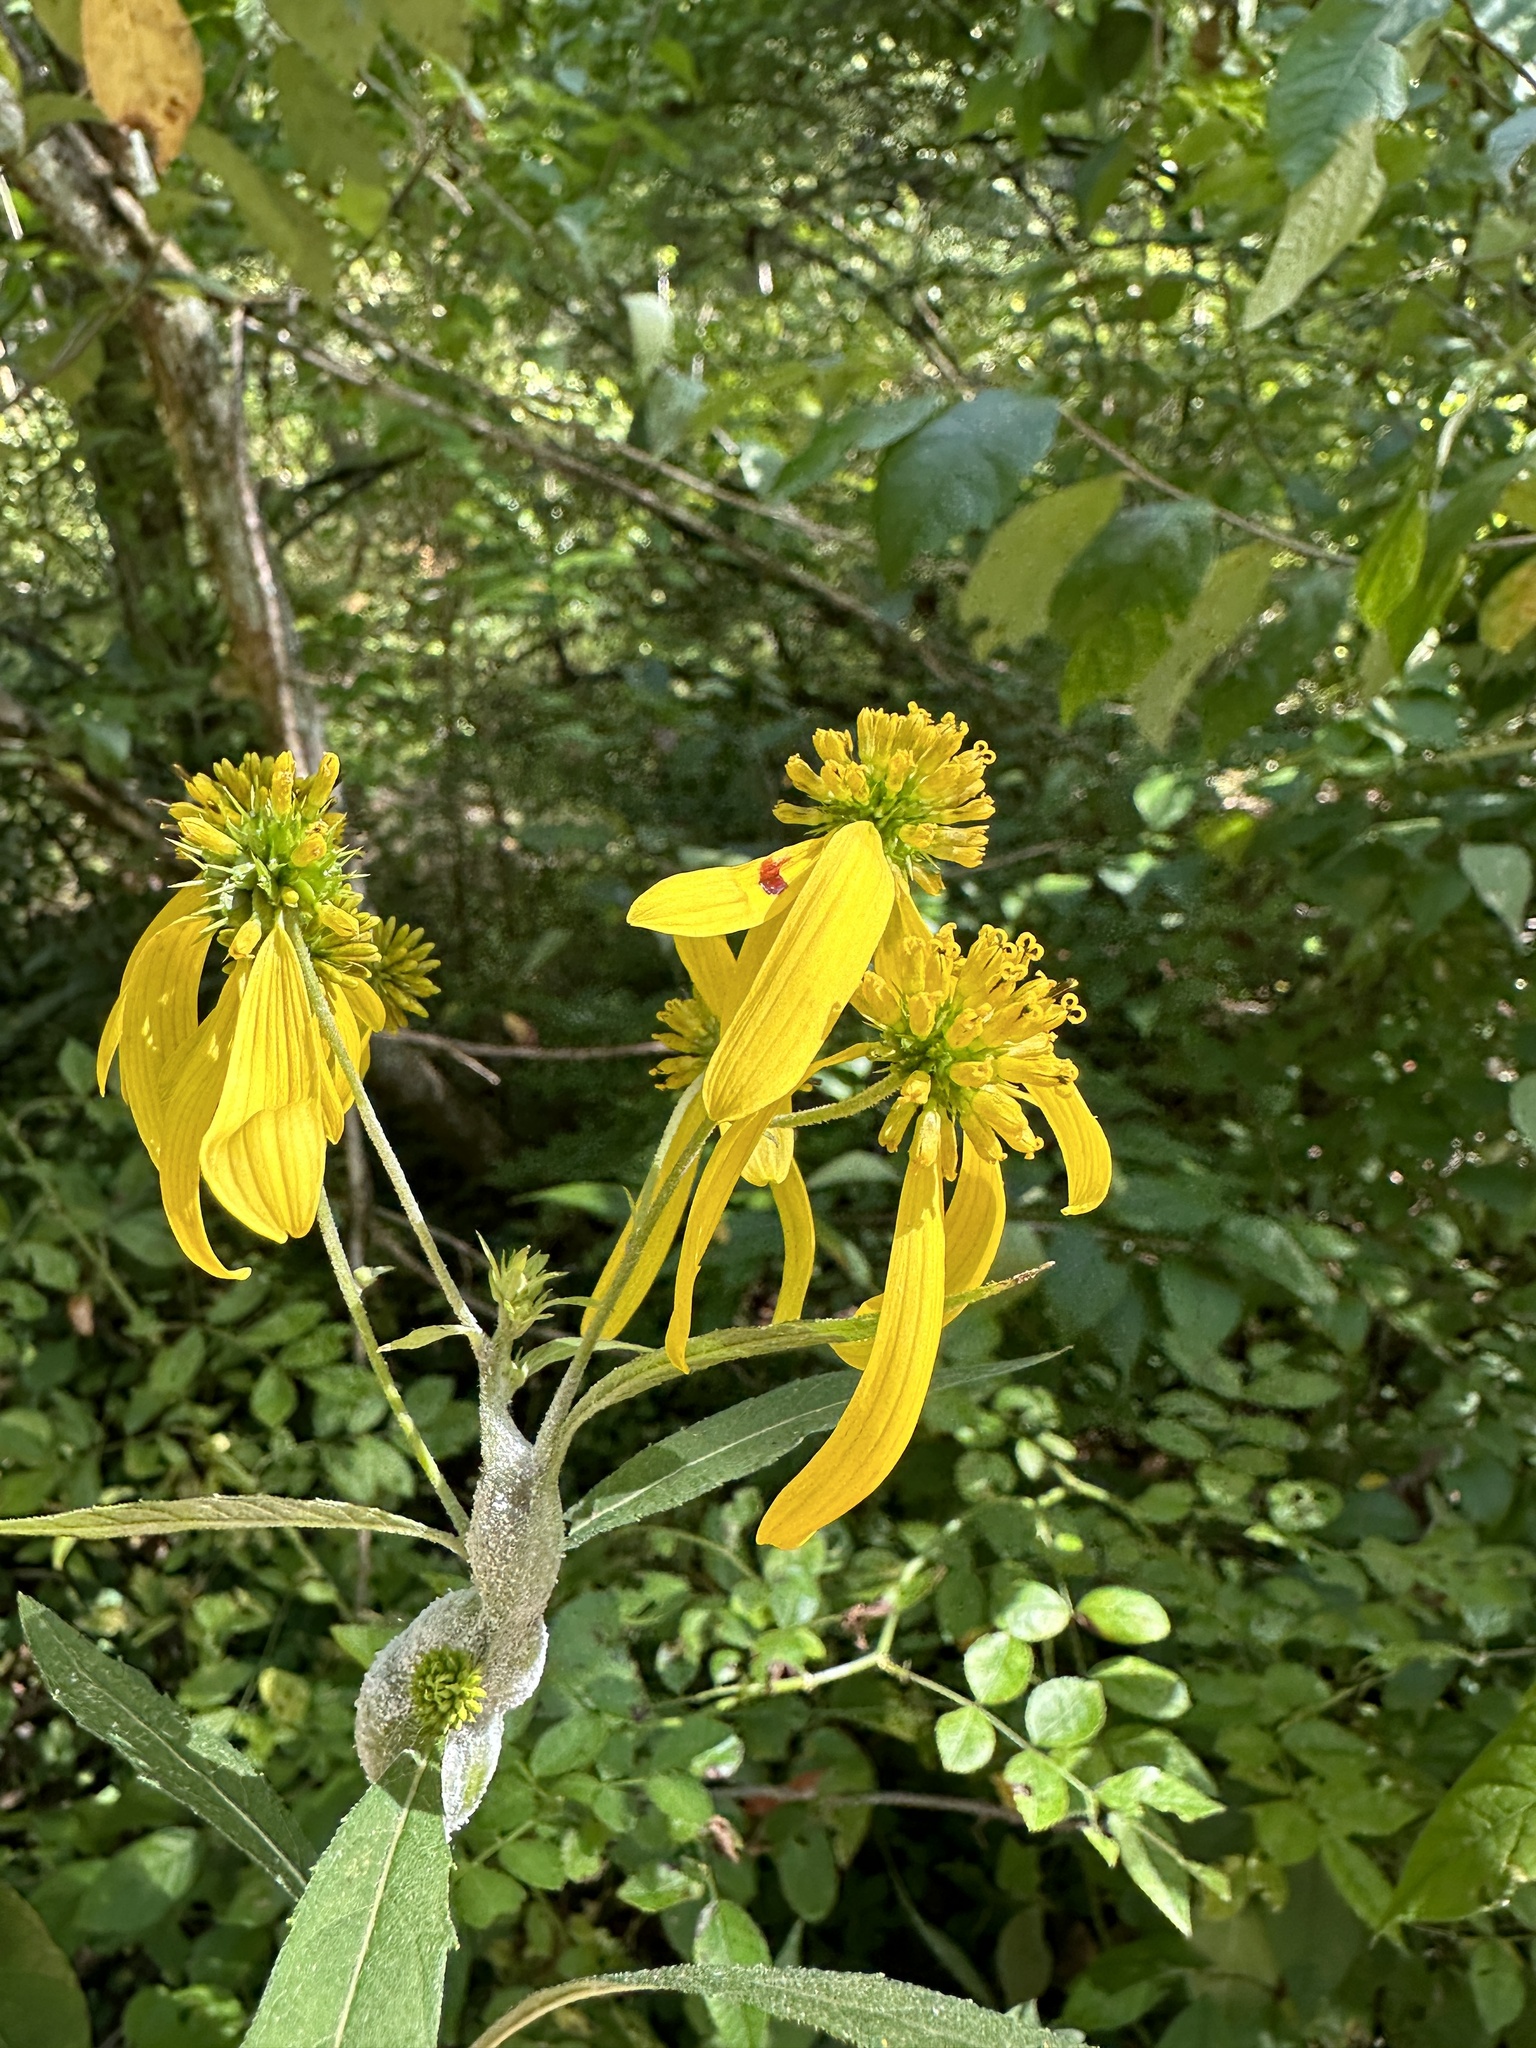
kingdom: Plantae
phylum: Tracheophyta
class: Magnoliopsida
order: Asterales
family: Asteraceae
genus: Verbesina
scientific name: Verbesina alternifolia
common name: Wingstem
